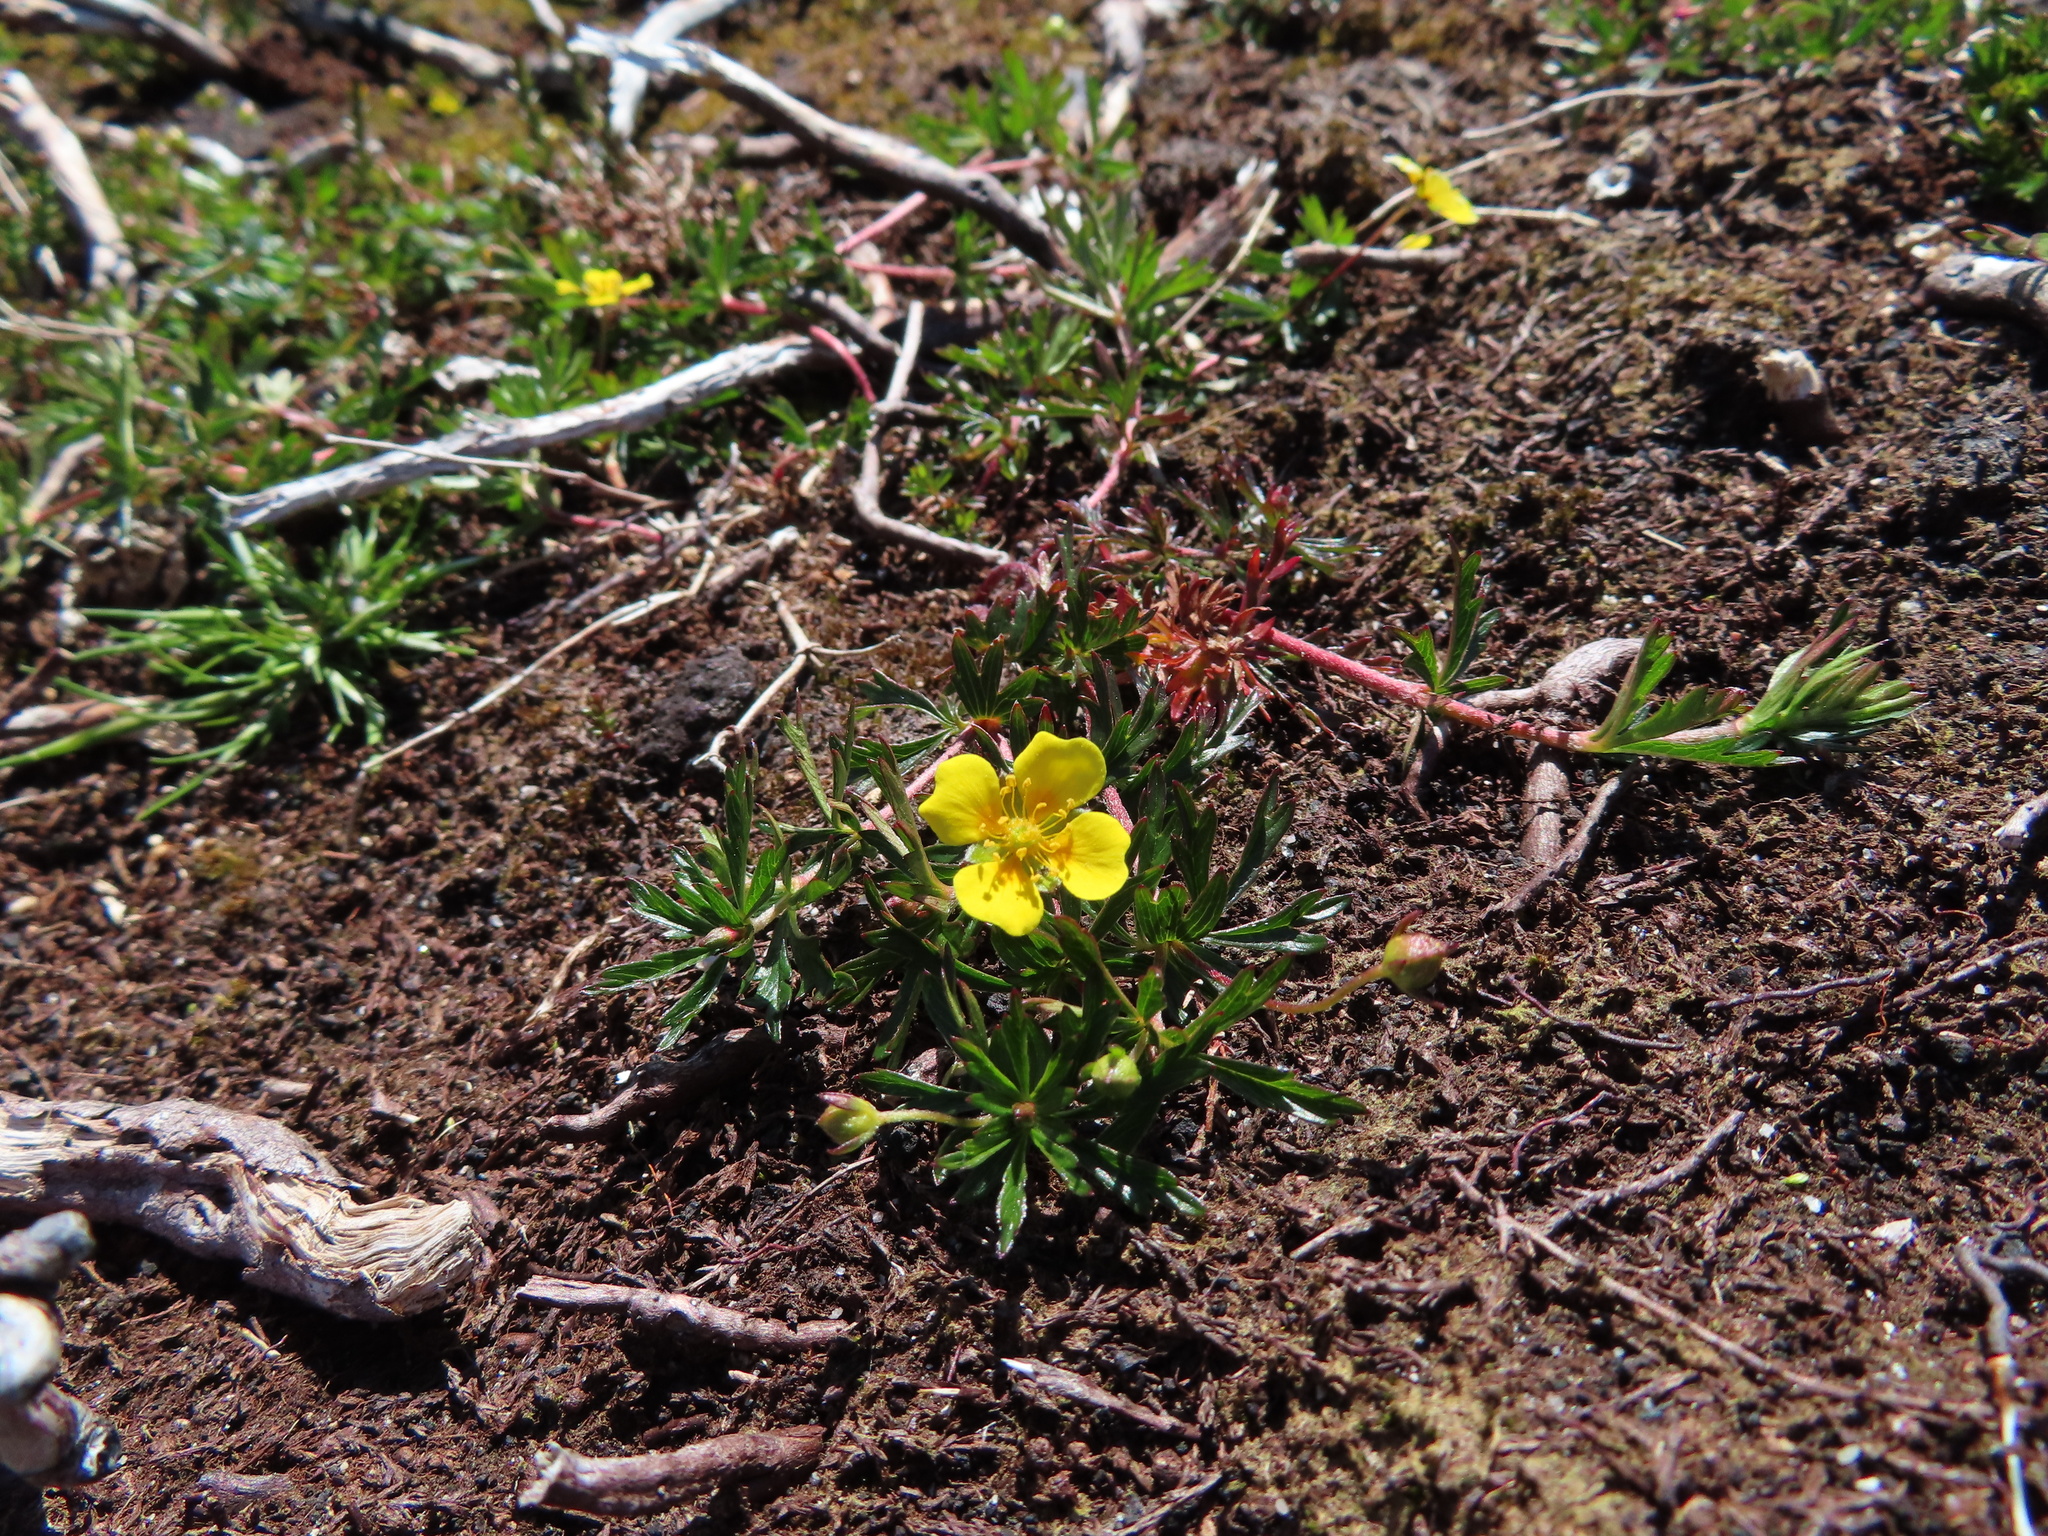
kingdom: Plantae
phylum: Tracheophyta
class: Magnoliopsida
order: Rosales
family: Rosaceae
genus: Potentilla
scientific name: Potentilla erecta
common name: Tormentil
